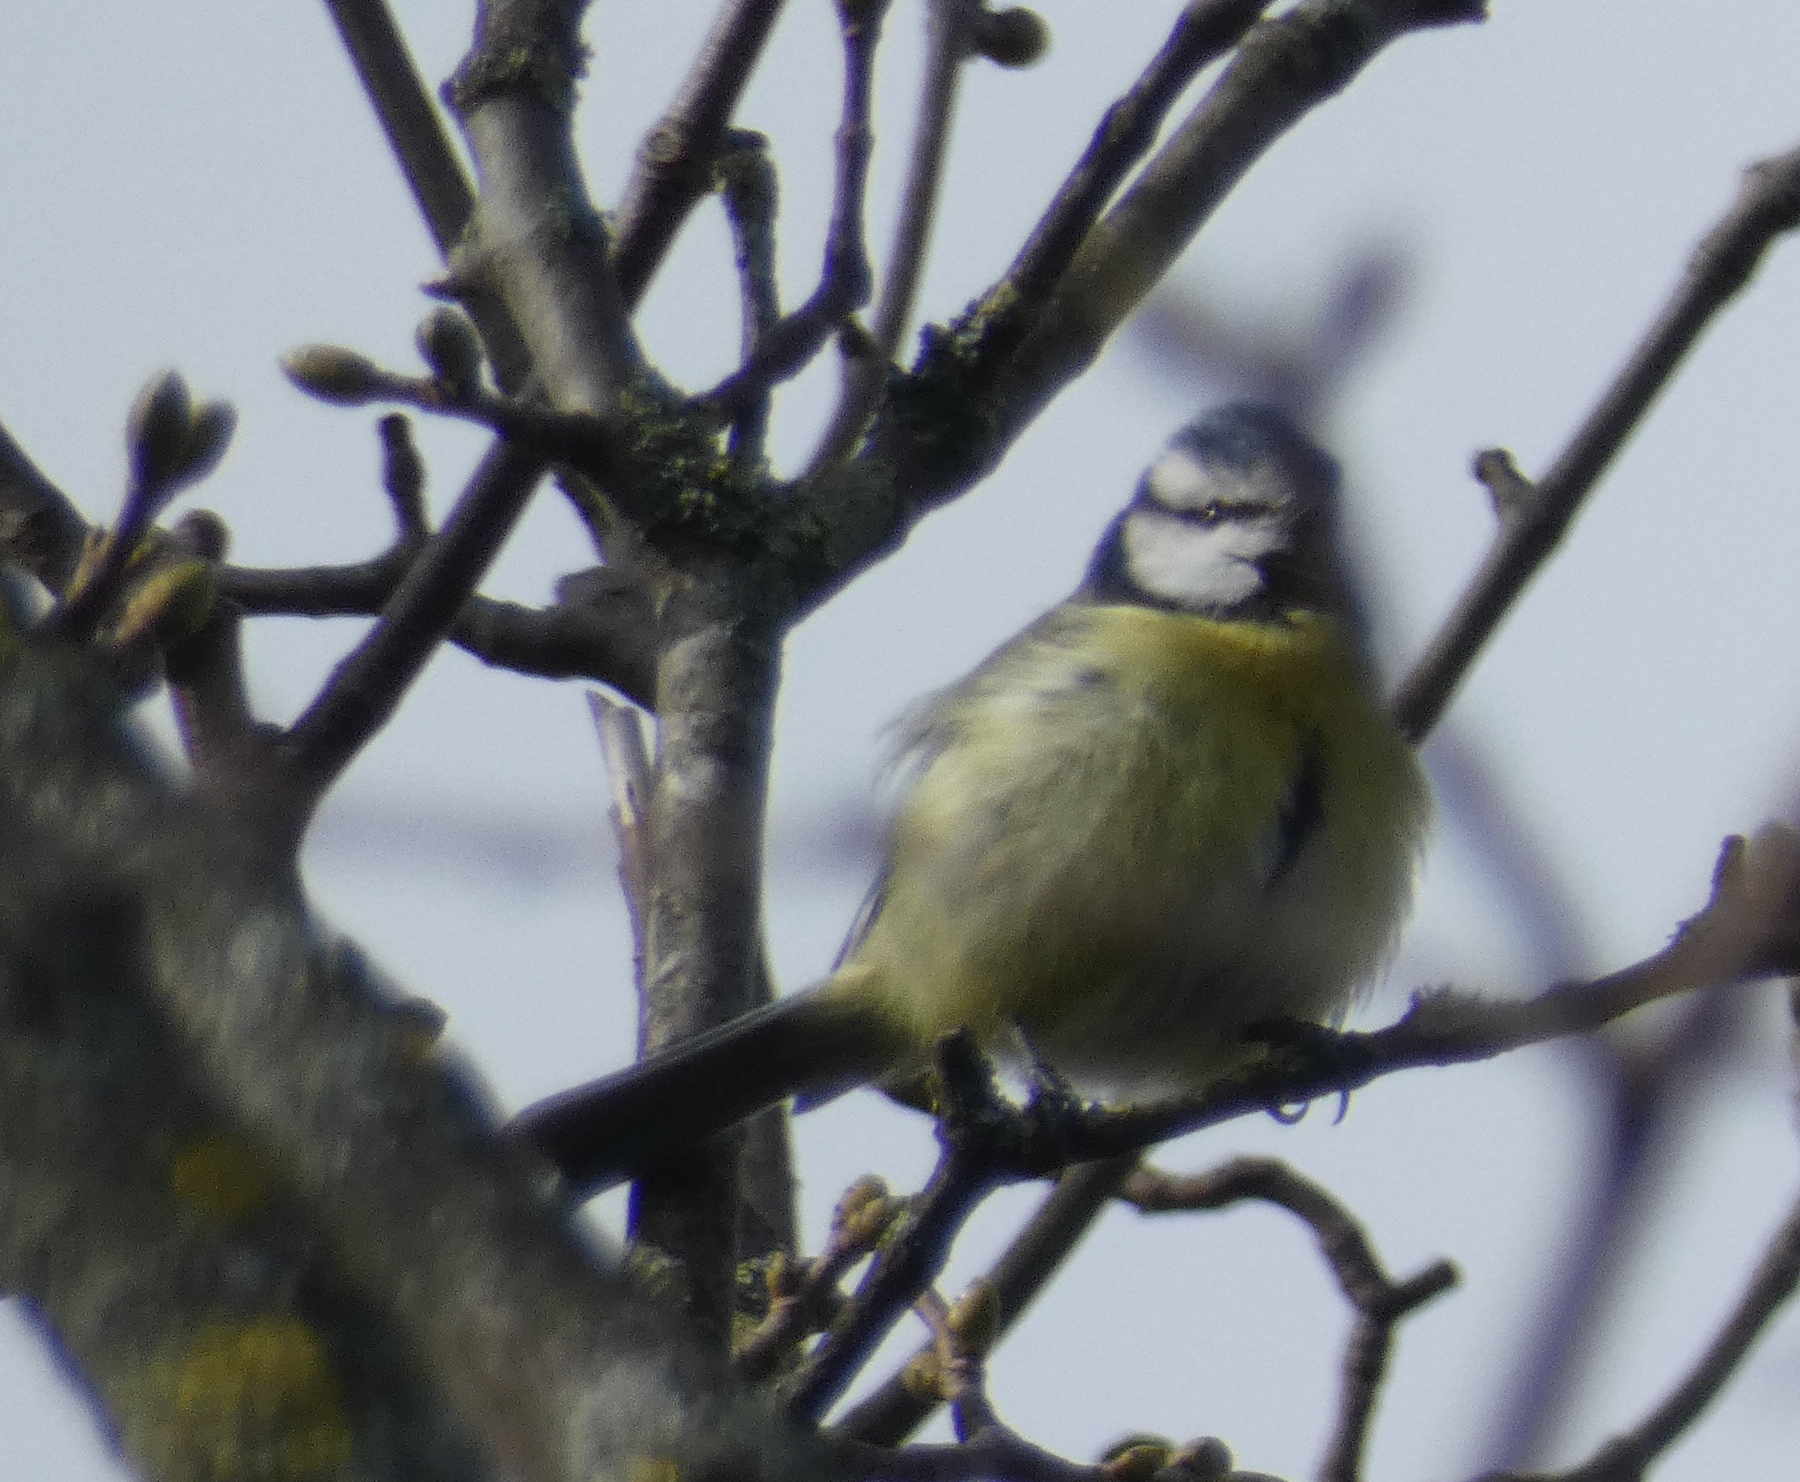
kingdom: Animalia
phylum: Chordata
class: Aves
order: Passeriformes
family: Paridae
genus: Cyanistes
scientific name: Cyanistes caeruleus
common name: Eurasian blue tit
